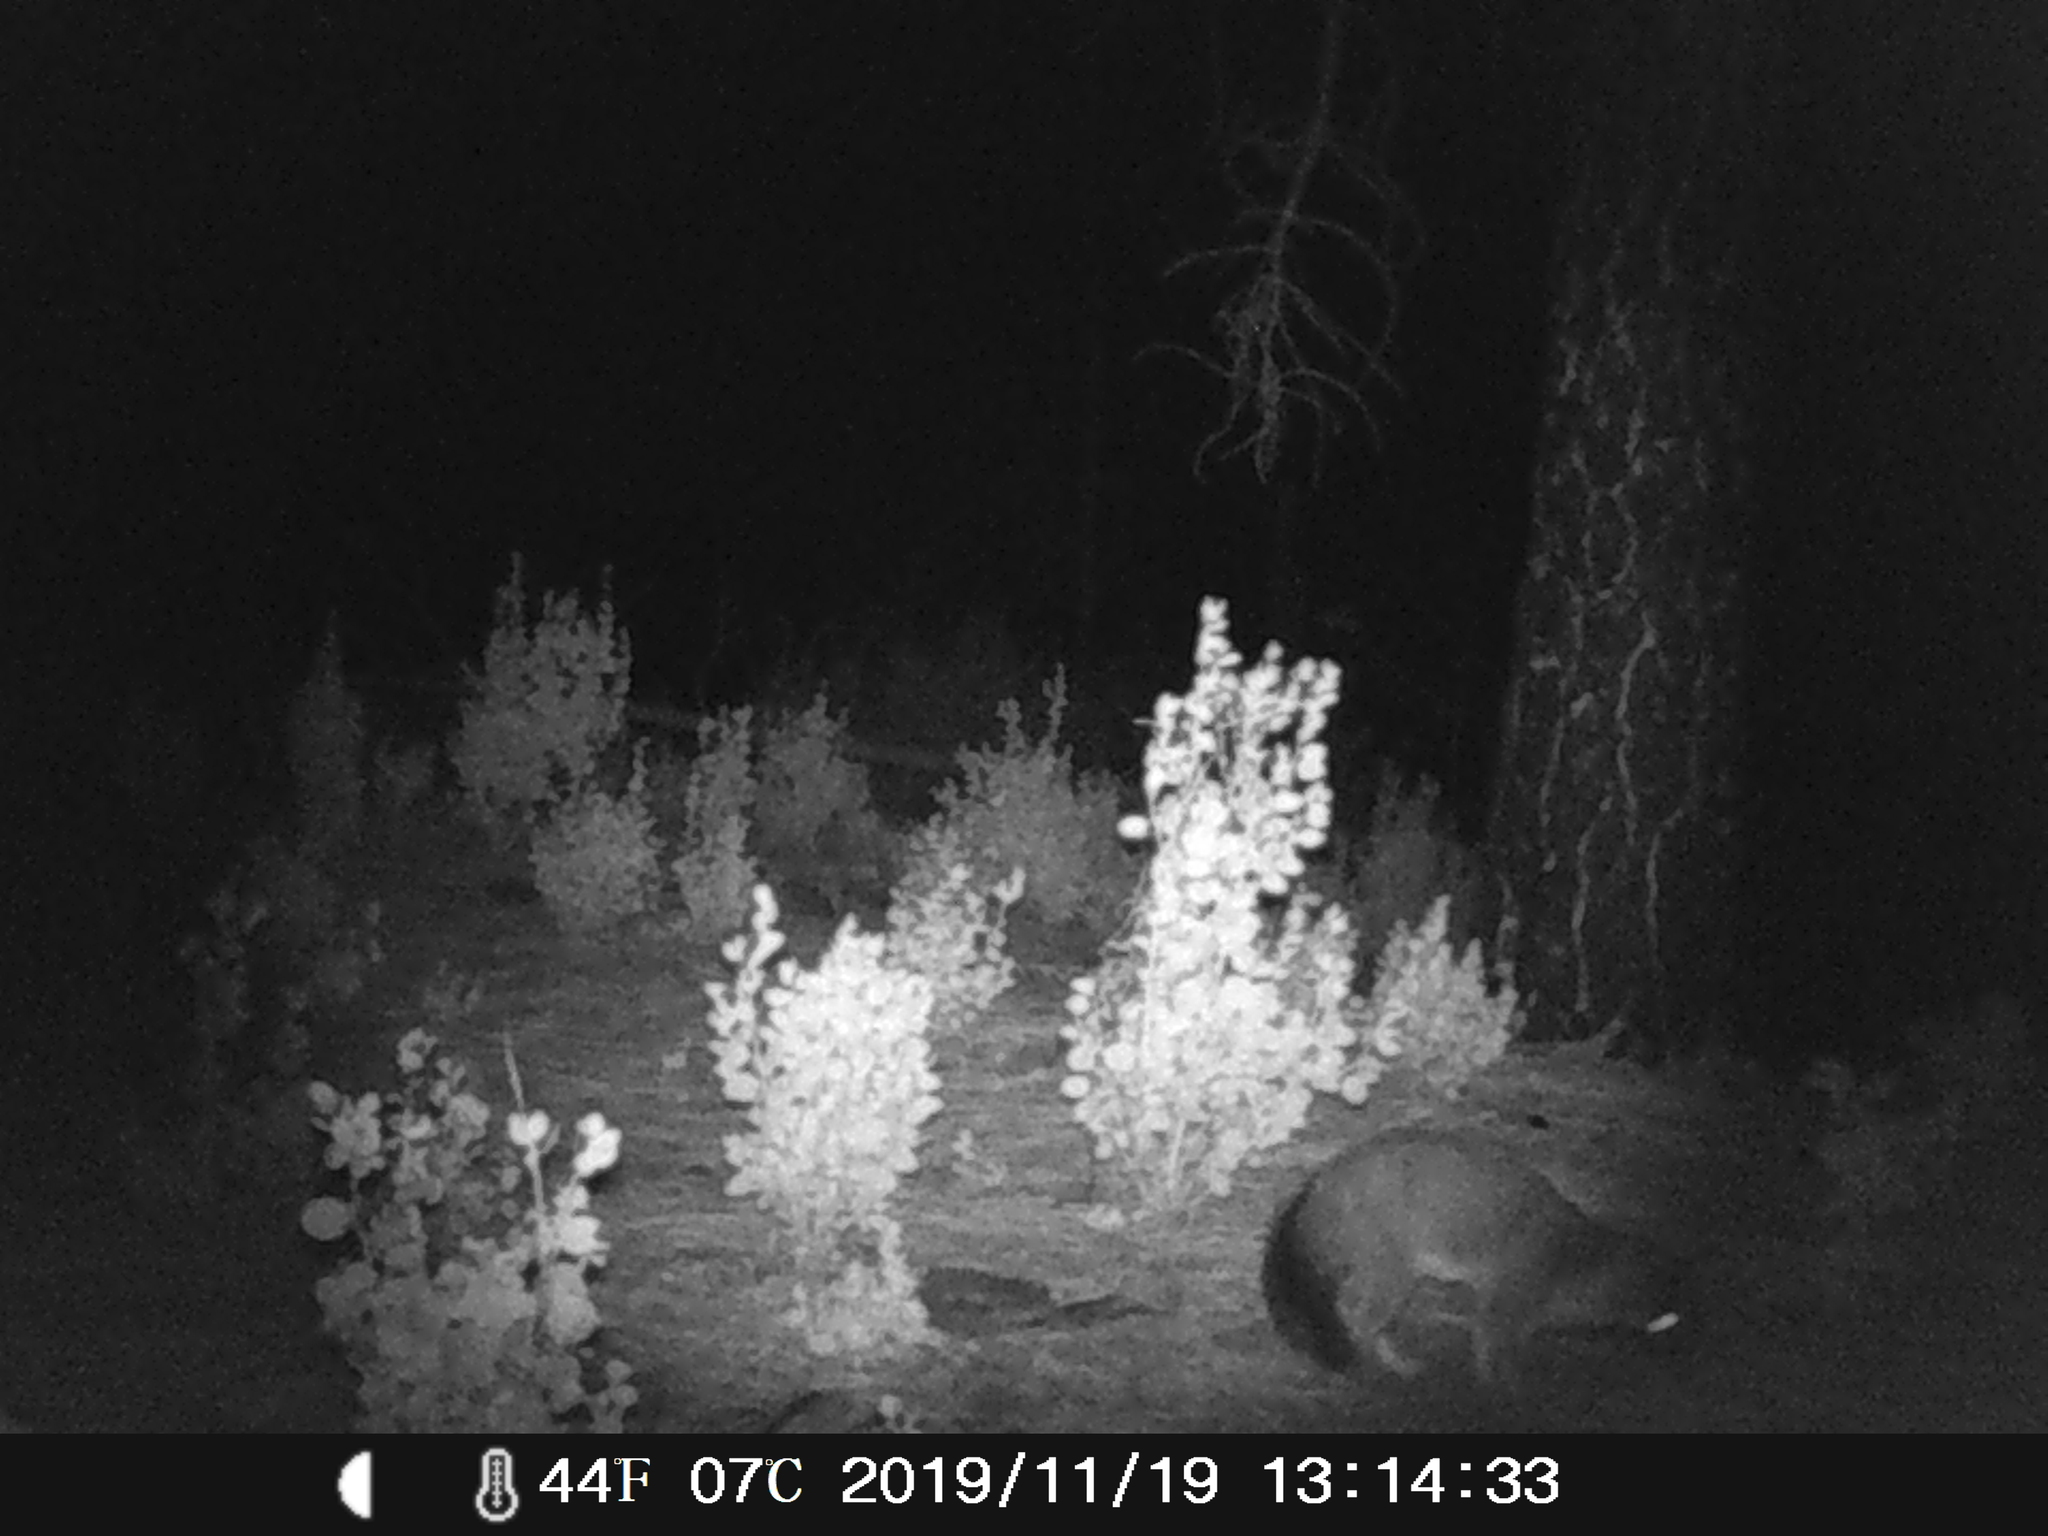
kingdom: Animalia
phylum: Chordata
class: Mammalia
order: Carnivora
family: Canidae
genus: Urocyon
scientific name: Urocyon cinereoargenteus
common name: Gray fox
